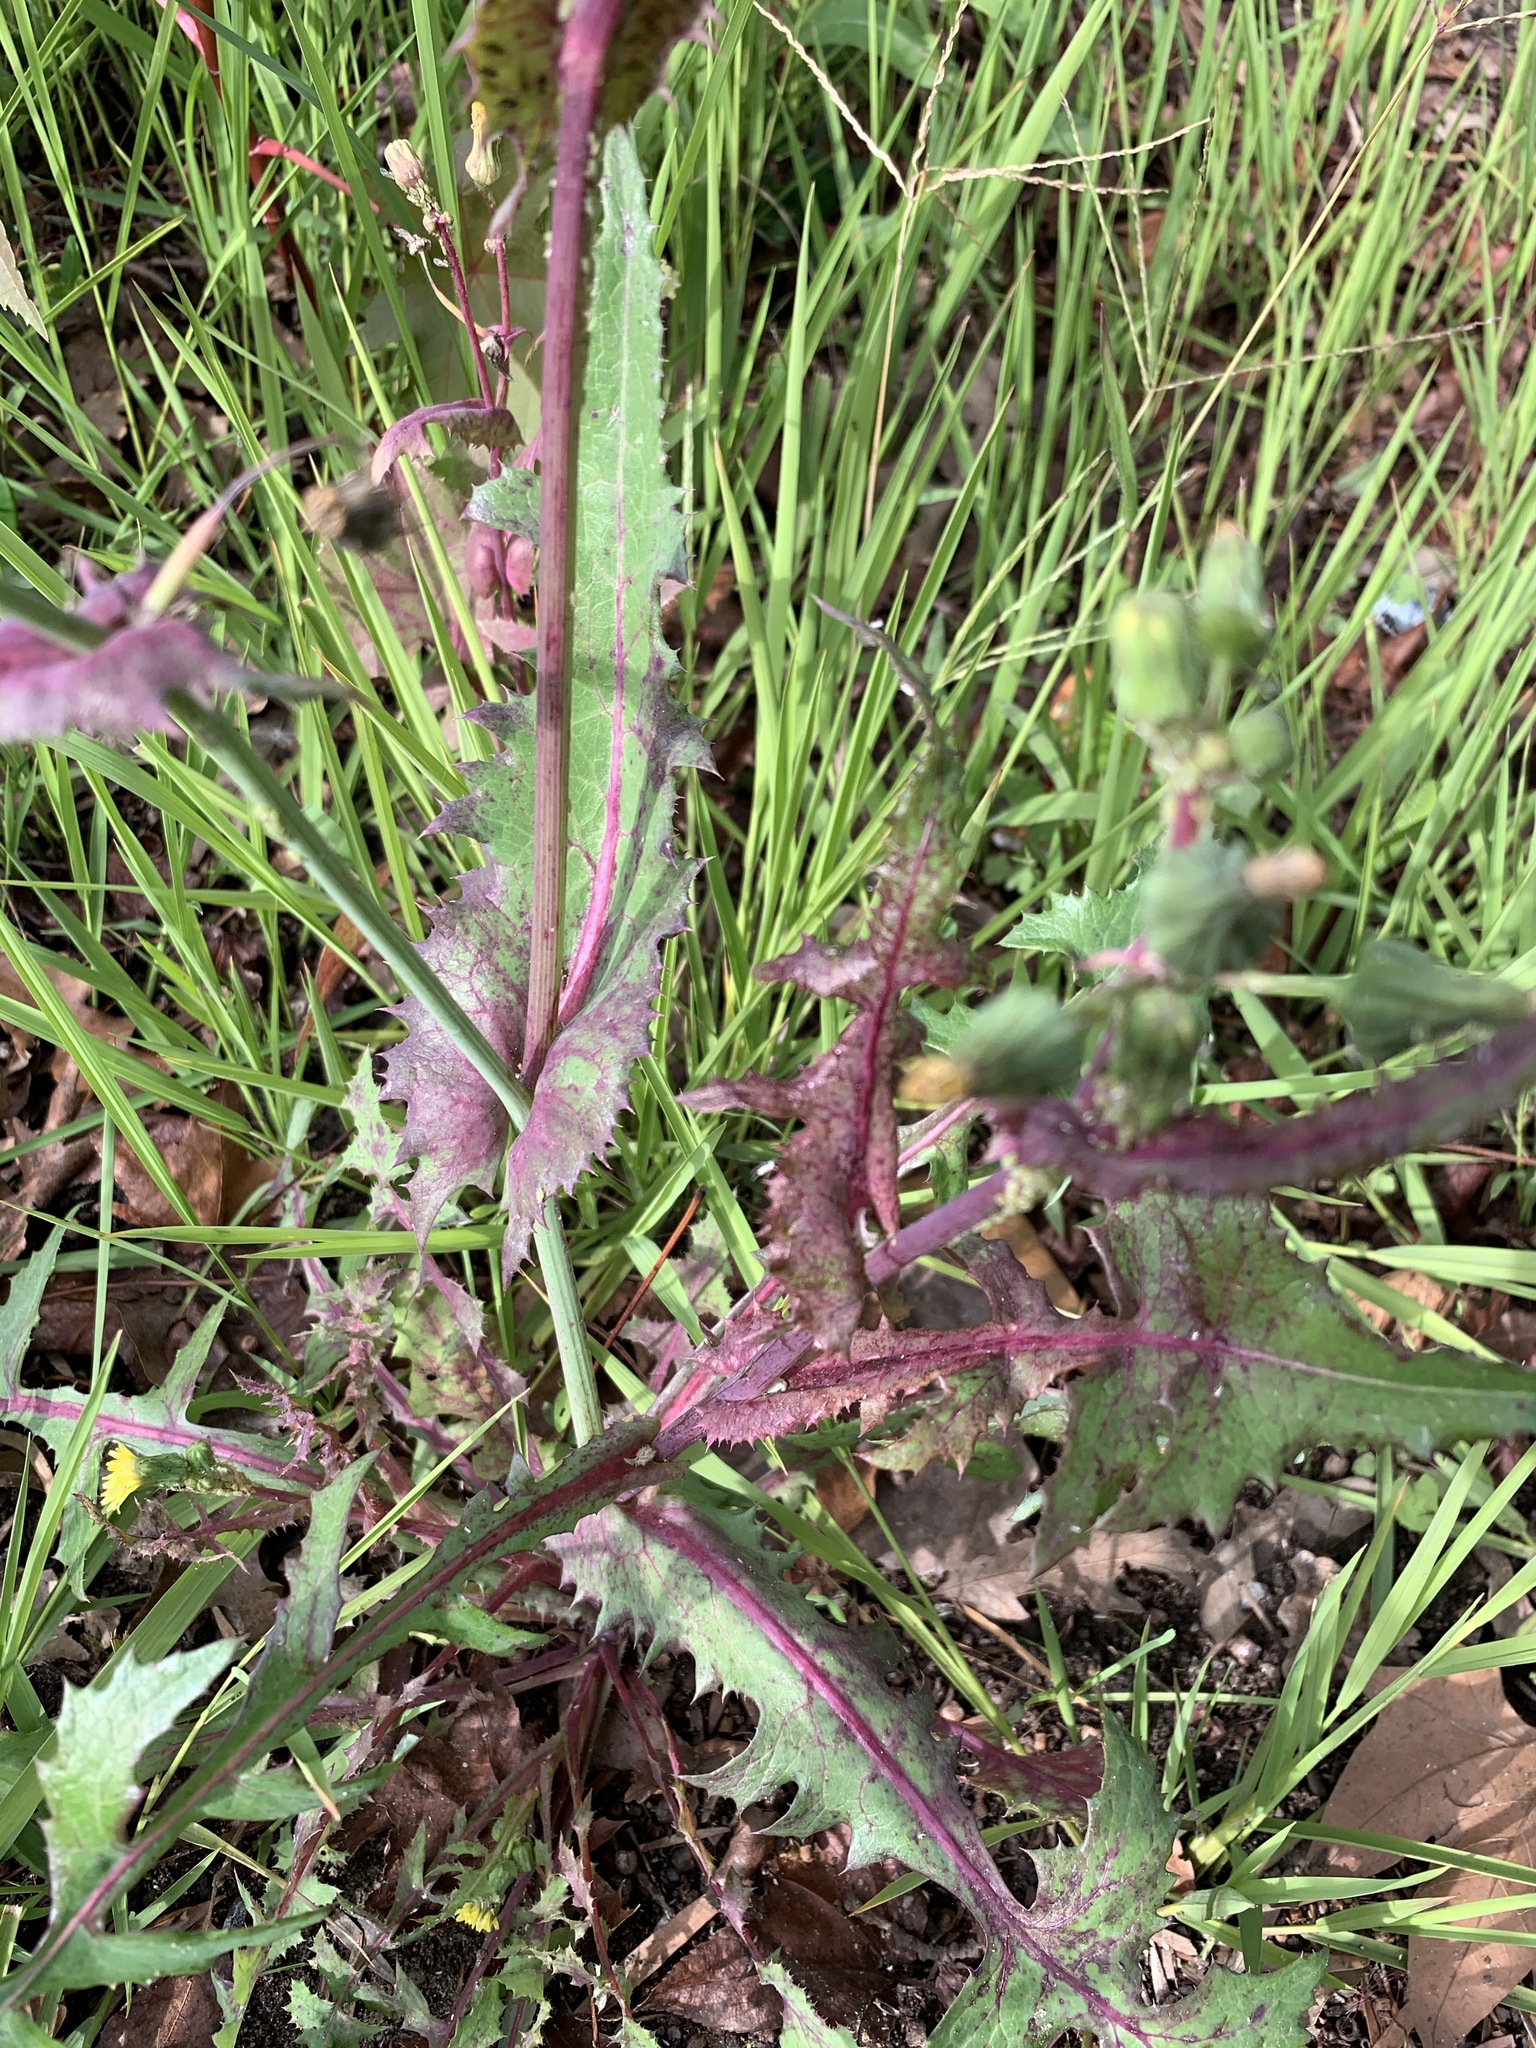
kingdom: Plantae
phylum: Tracheophyta
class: Magnoliopsida
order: Asterales
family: Asteraceae
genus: Sonchus
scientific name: Sonchus oleraceus
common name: Common sowthistle
